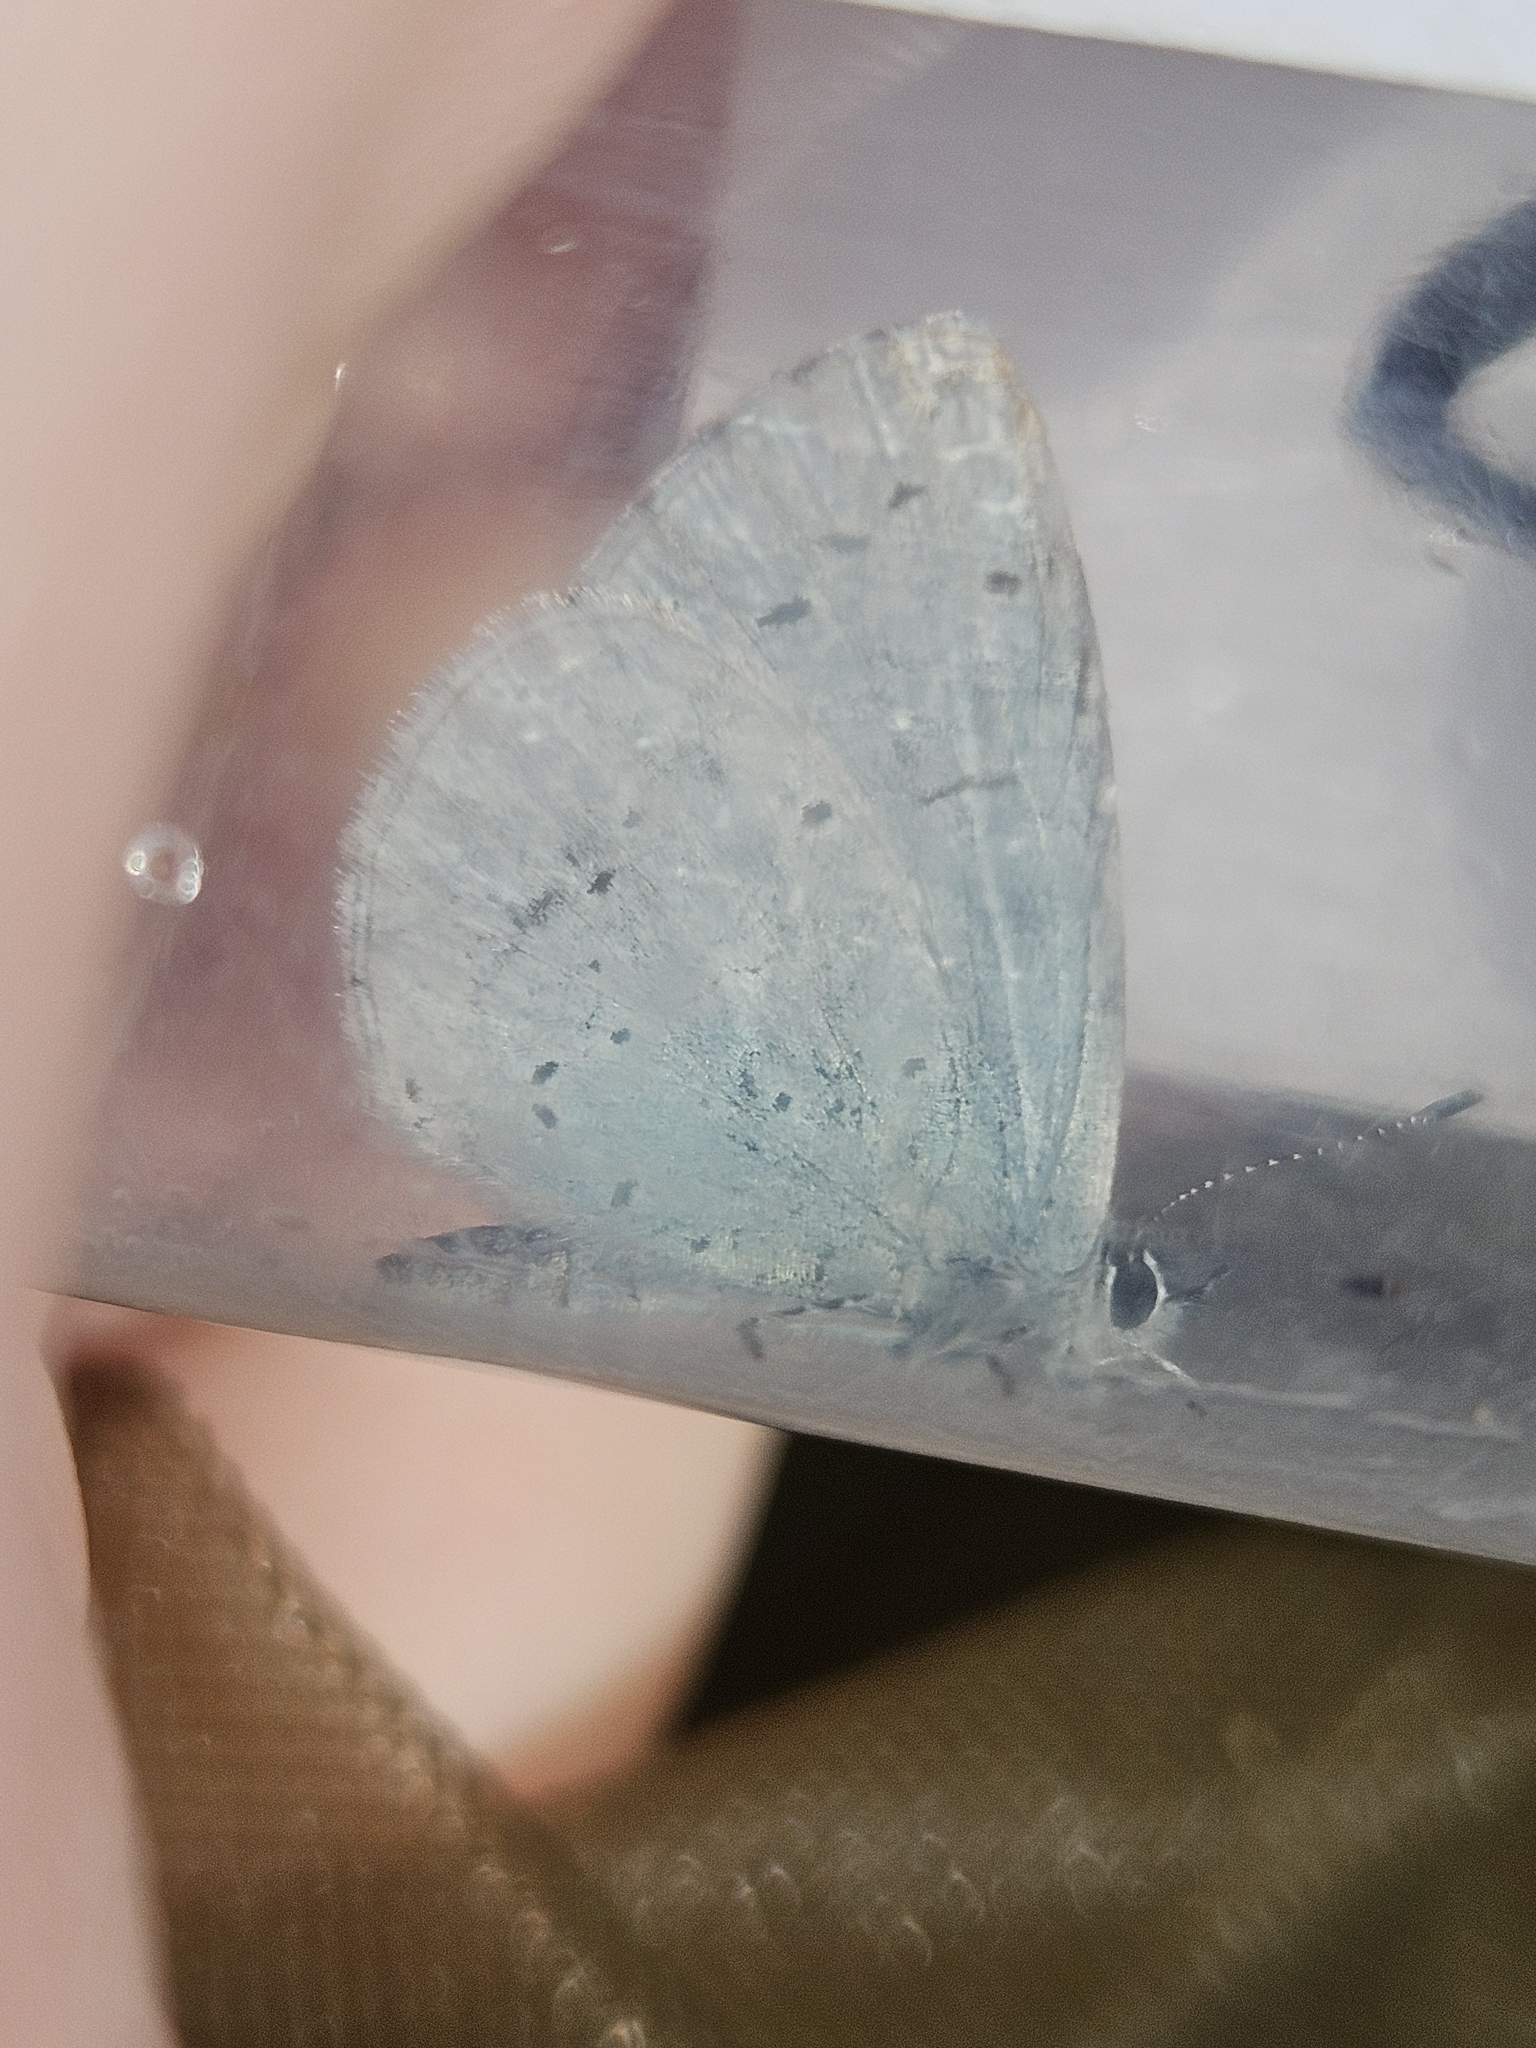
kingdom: Animalia
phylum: Arthropoda
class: Insecta
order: Lepidoptera
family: Lycaenidae
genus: Celastrina
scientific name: Celastrina argiolus
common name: Holly blue
